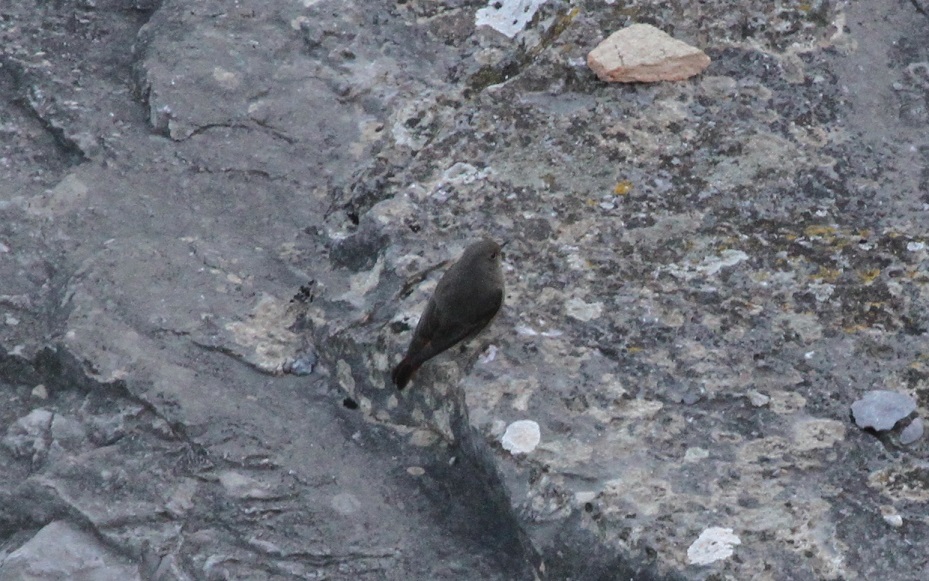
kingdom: Animalia
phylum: Chordata
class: Aves
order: Passeriformes
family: Muscicapidae
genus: Phoenicurus
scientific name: Phoenicurus ochruros
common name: Black redstart
